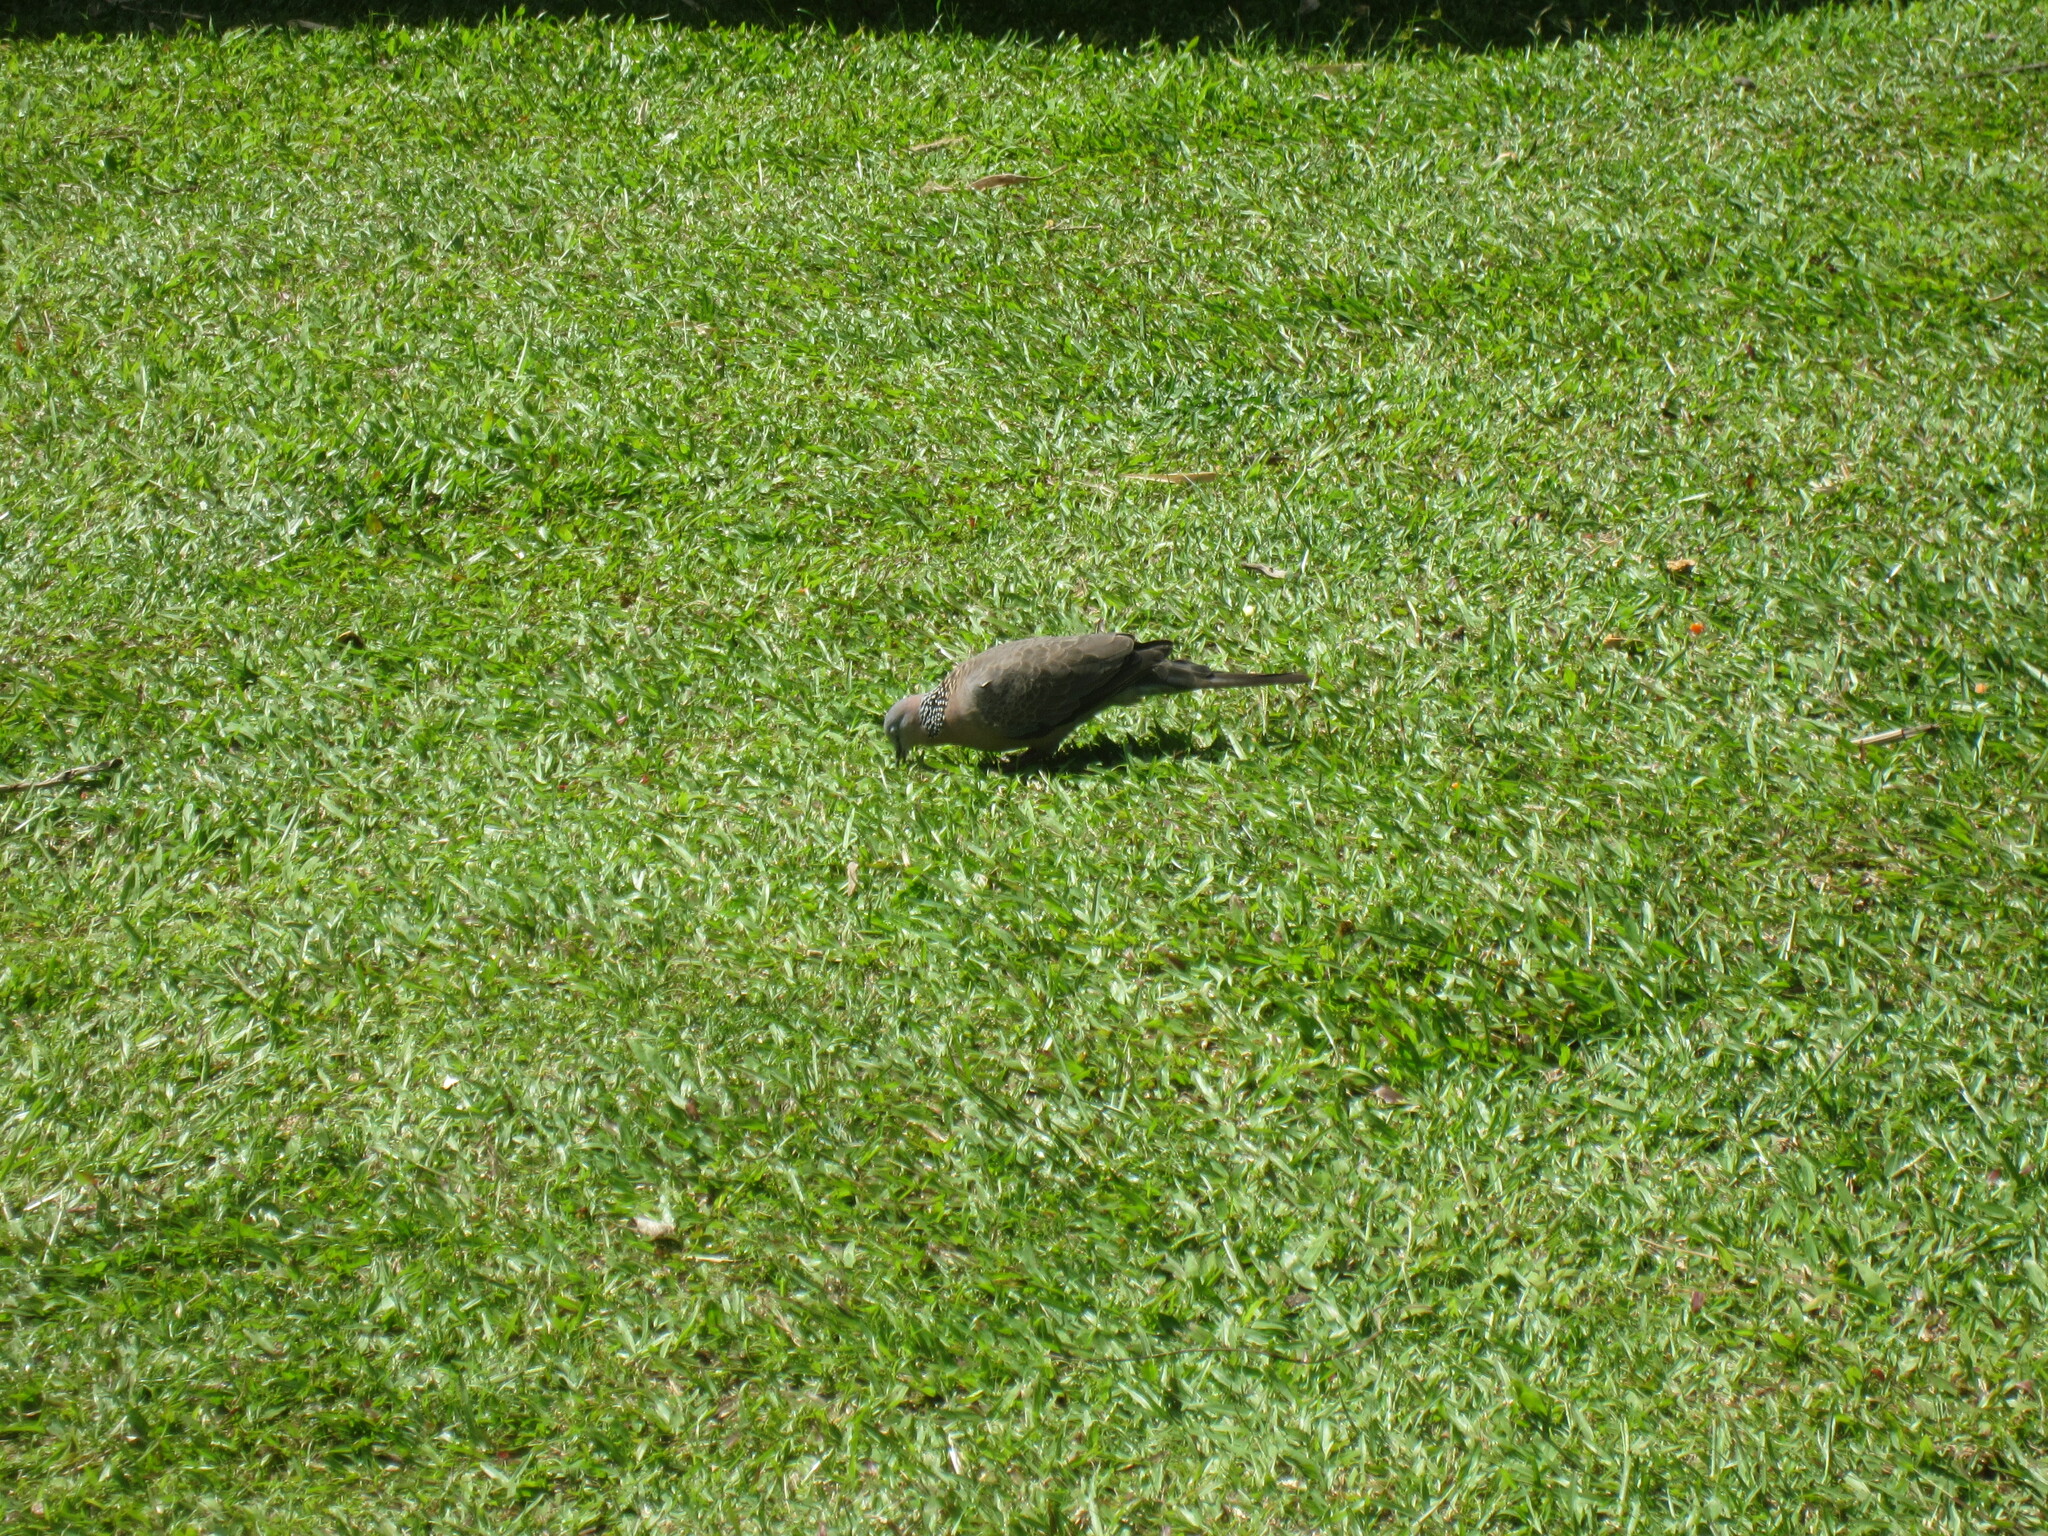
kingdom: Animalia
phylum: Chordata
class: Aves
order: Columbiformes
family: Columbidae
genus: Spilopelia
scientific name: Spilopelia chinensis
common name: Spotted dove
